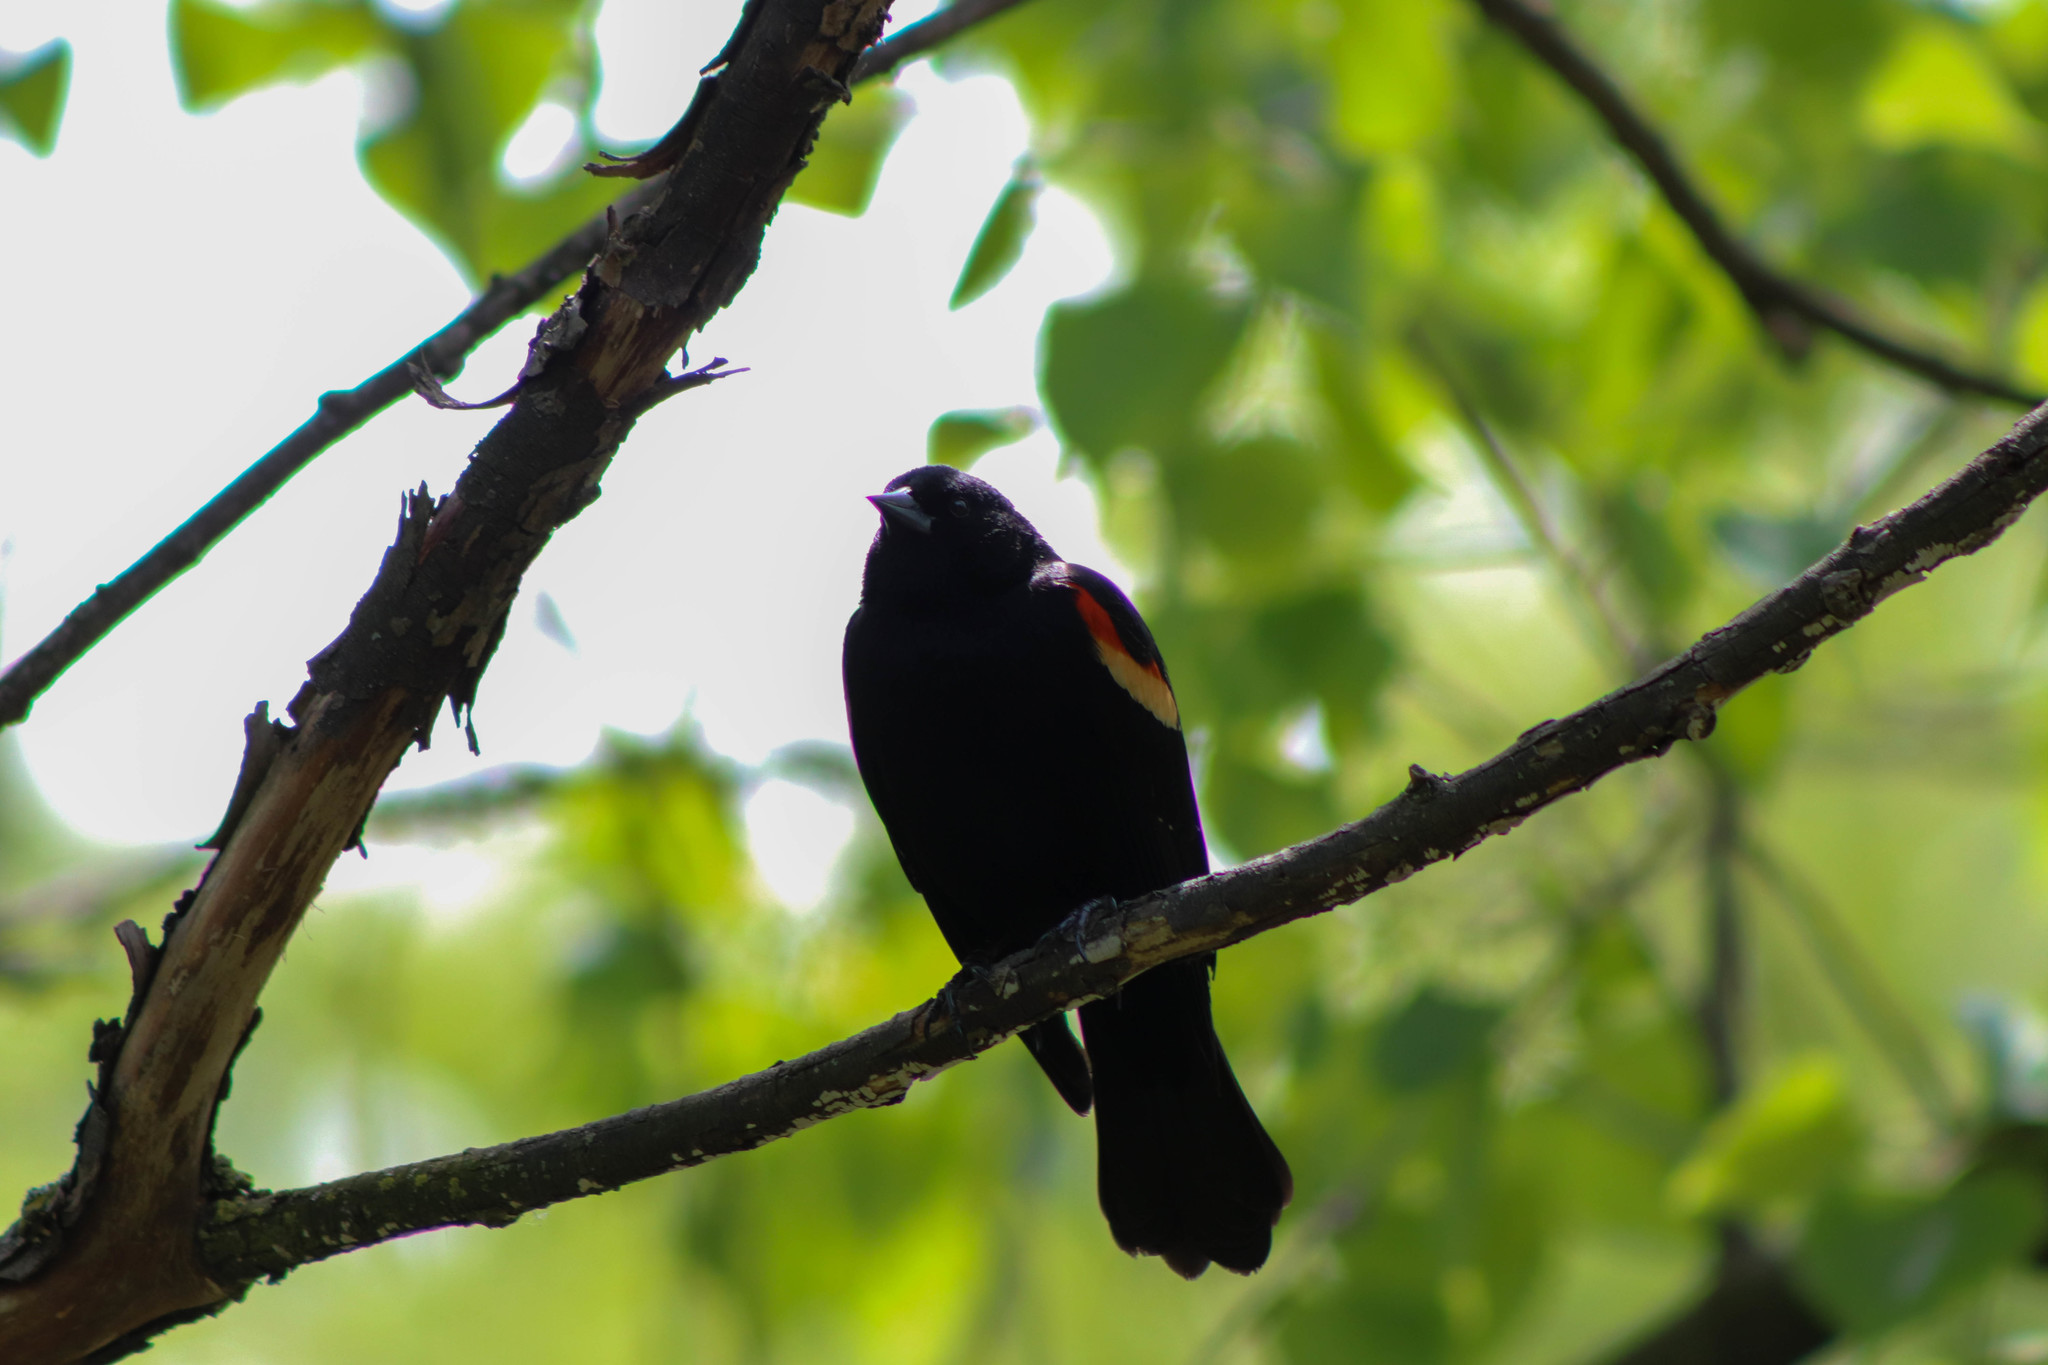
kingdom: Animalia
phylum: Chordata
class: Aves
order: Passeriformes
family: Icteridae
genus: Agelaius
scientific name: Agelaius phoeniceus
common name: Red-winged blackbird
